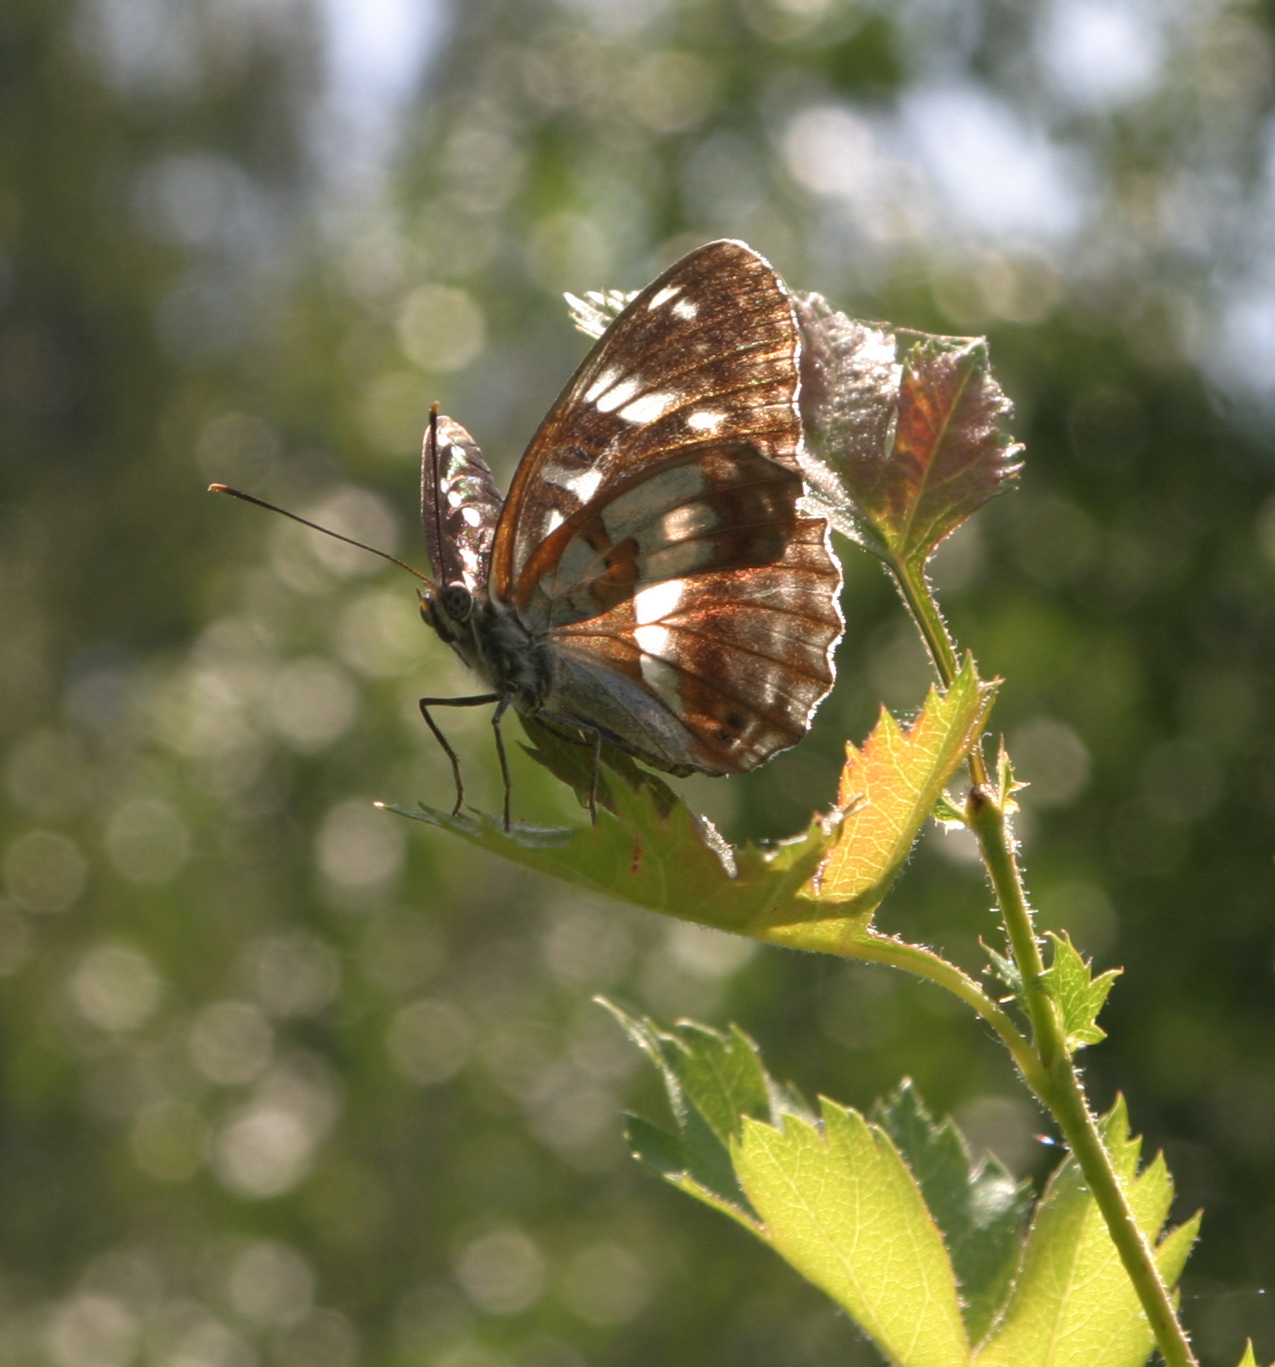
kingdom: Plantae
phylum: Tracheophyta
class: Magnoliopsida
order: Rosales
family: Rosaceae
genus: Crataegus
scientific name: Crataegus dsungarica
